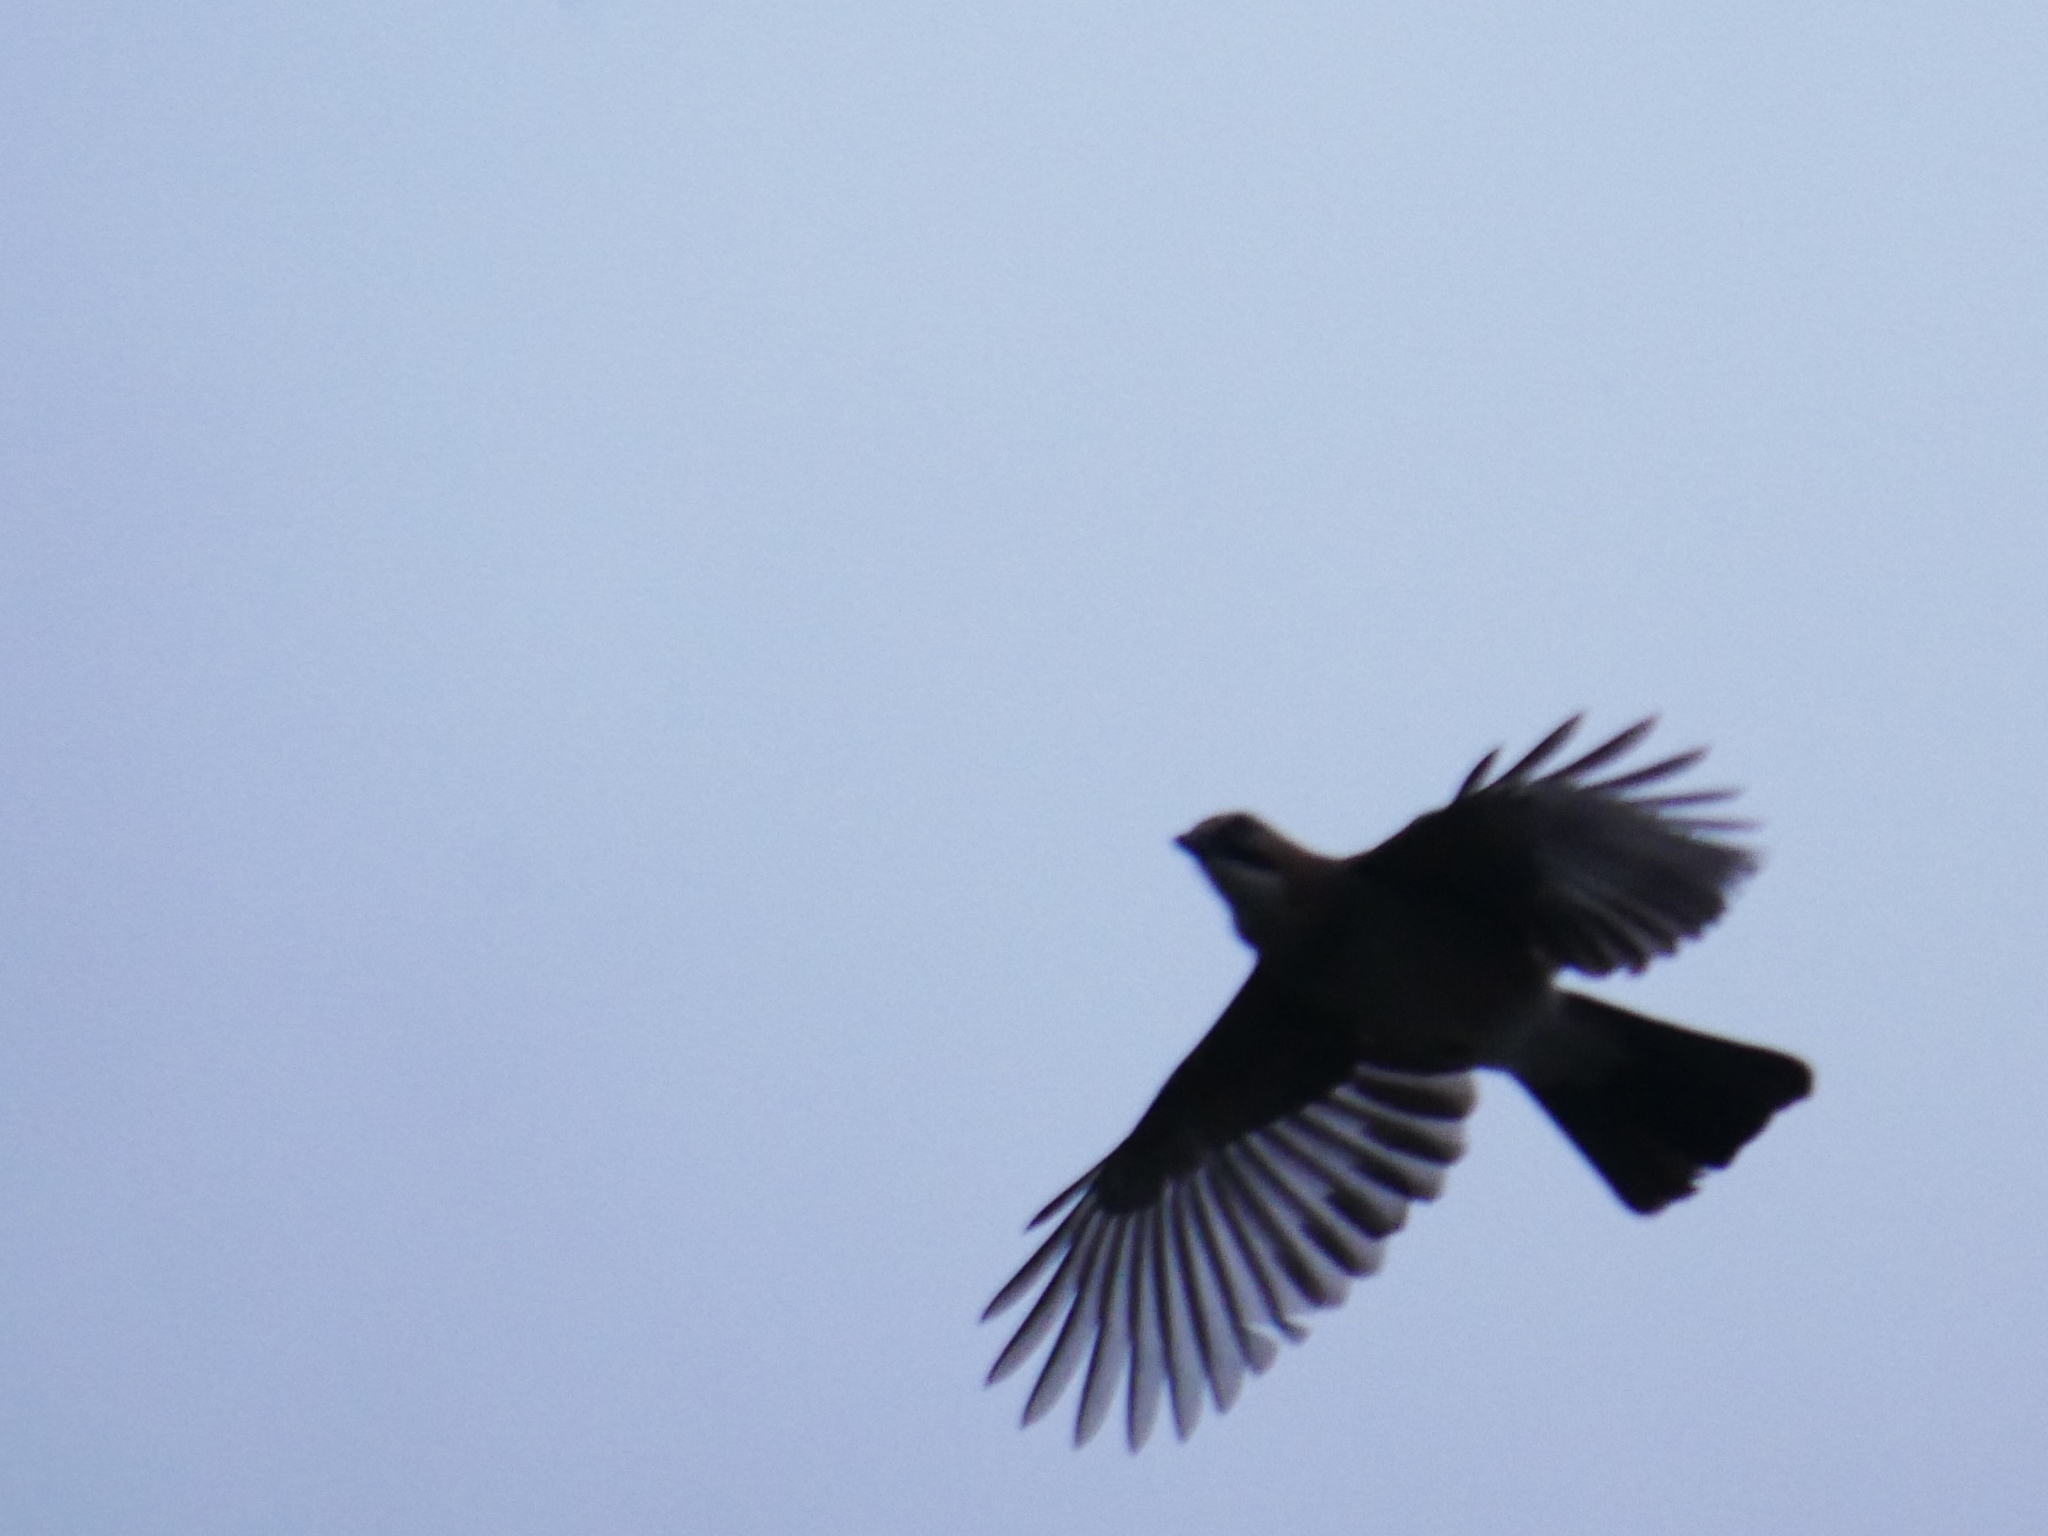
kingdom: Animalia
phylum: Chordata
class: Aves
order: Passeriformes
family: Corvidae
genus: Garrulus
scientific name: Garrulus glandarius
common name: Eurasian jay
